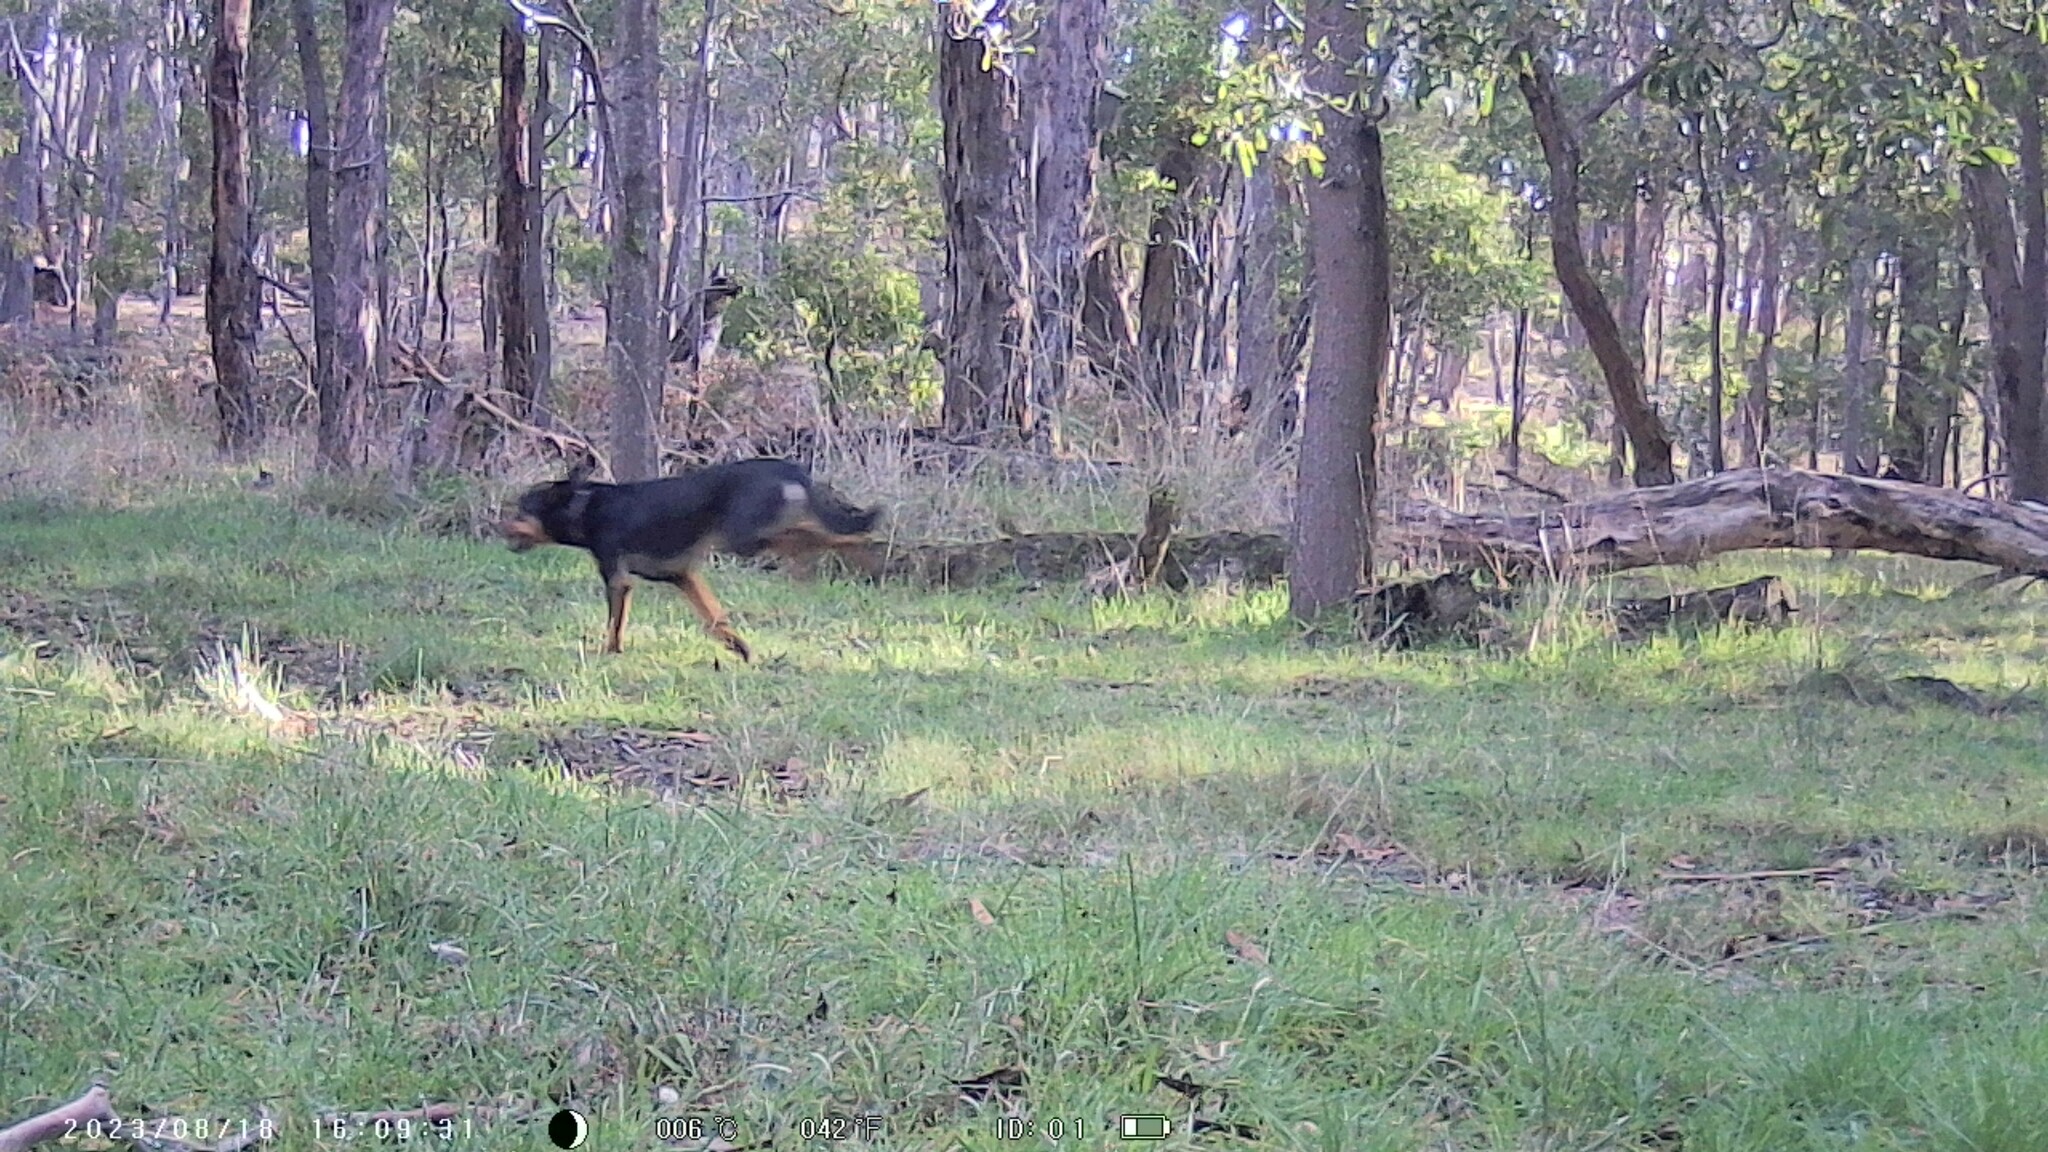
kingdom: Animalia
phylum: Chordata
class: Mammalia
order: Carnivora
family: Canidae
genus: Canis
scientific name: Canis lupus
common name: Gray wolf
